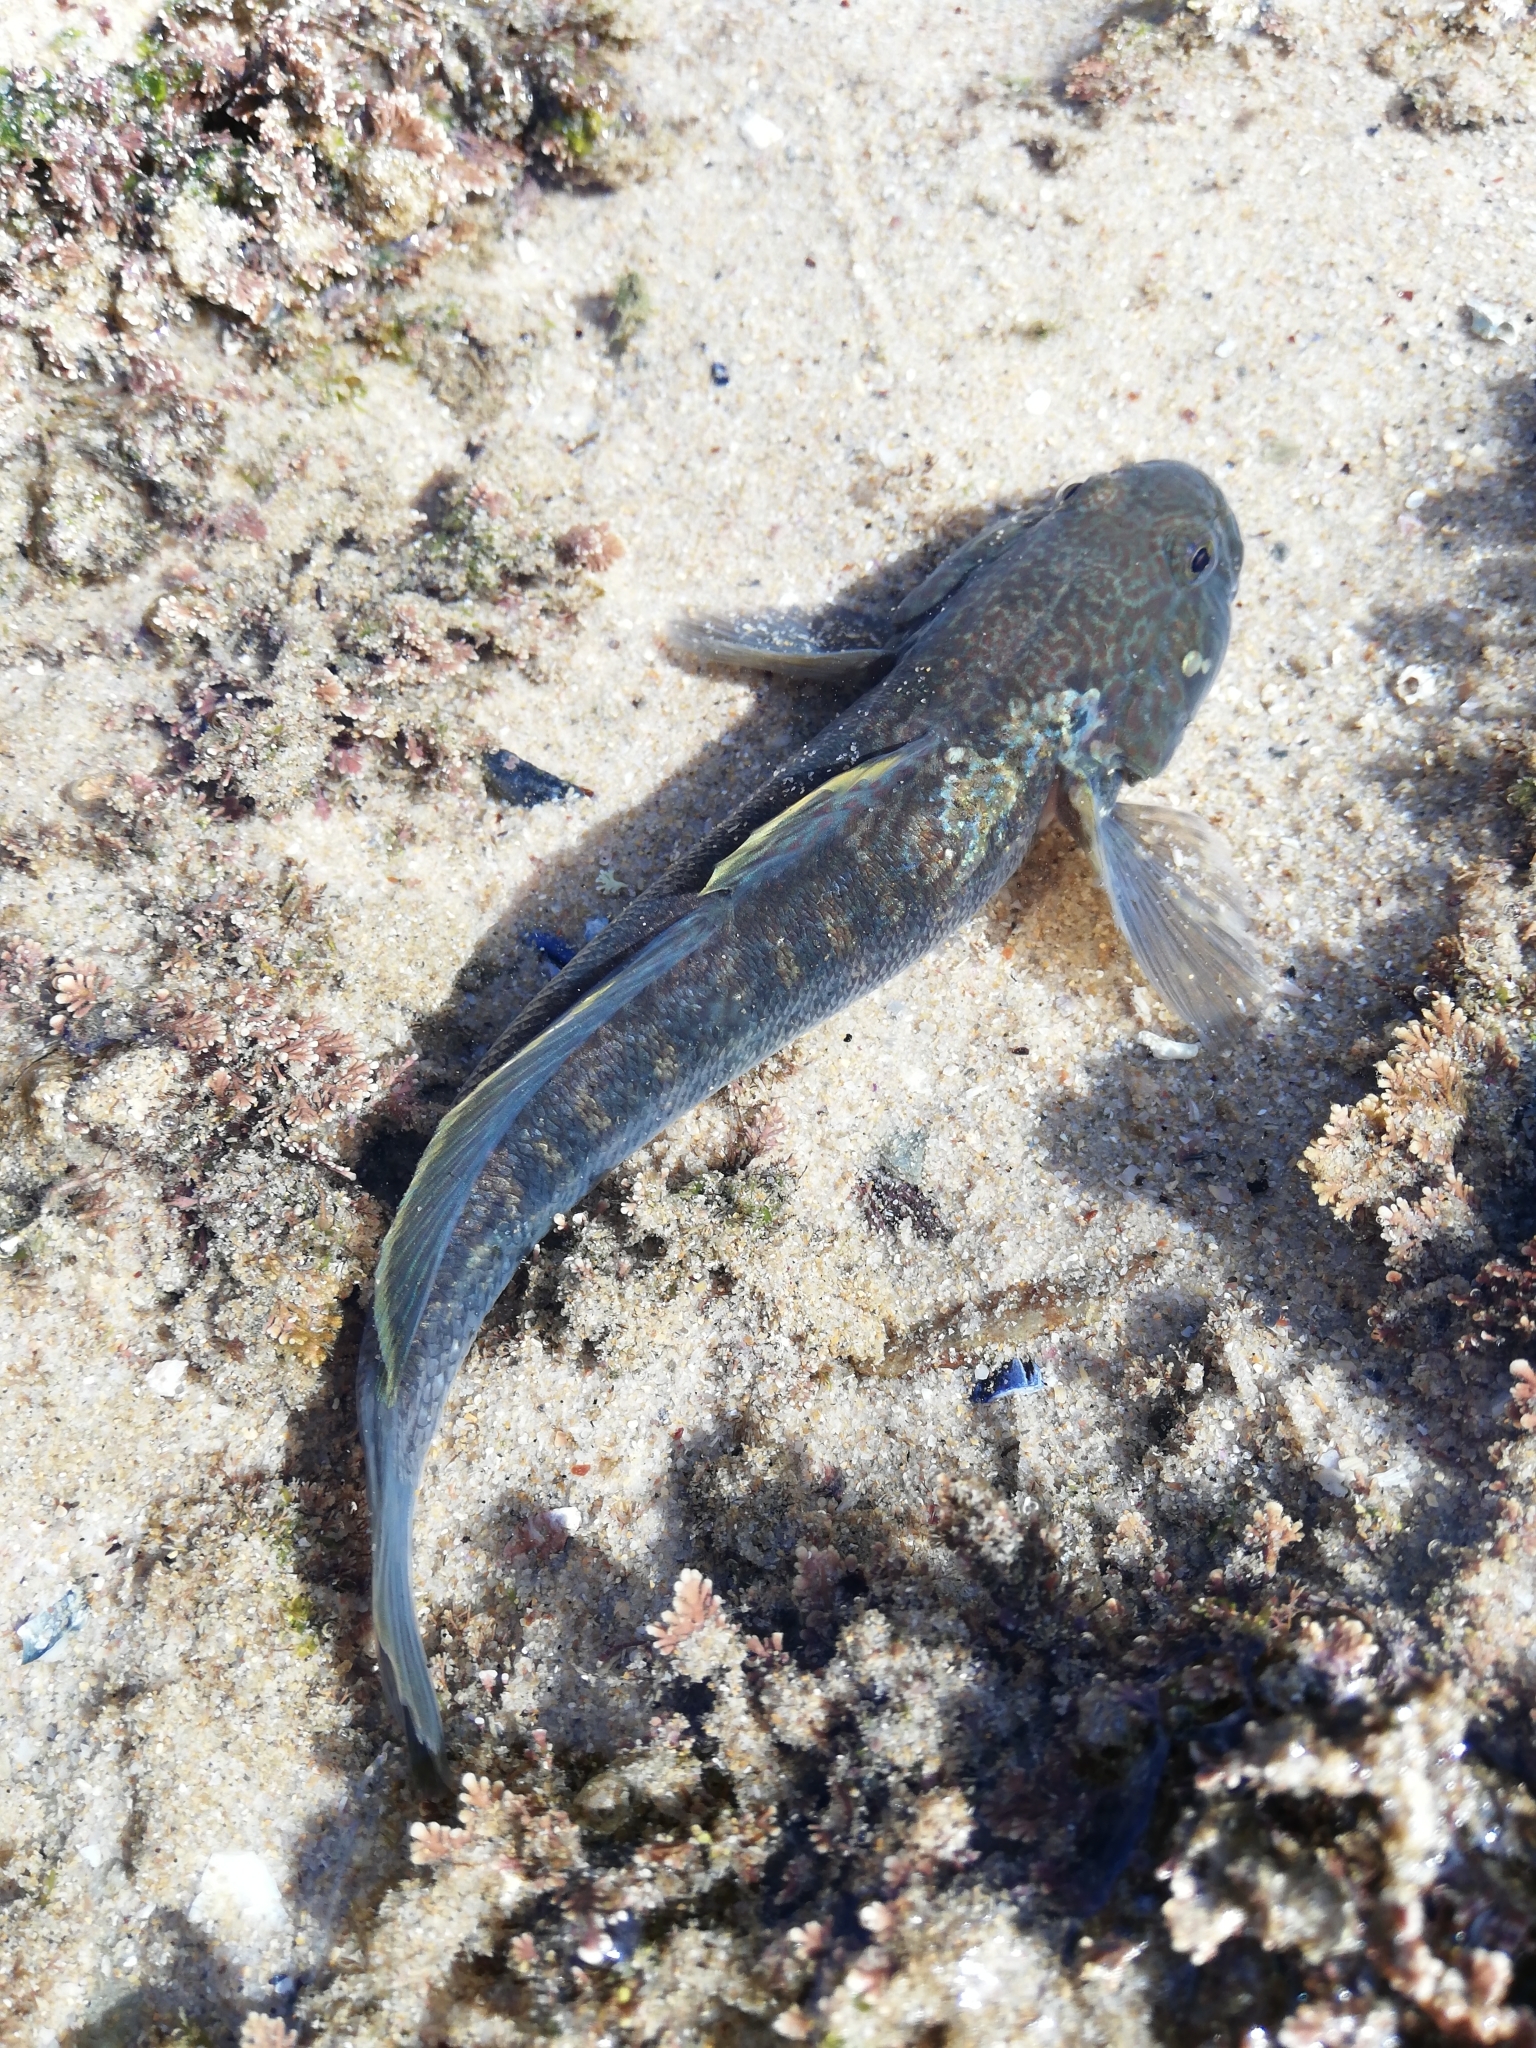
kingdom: Animalia
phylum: Chordata
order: Perciformes
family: Gobiidae
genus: Caffrogobius
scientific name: Caffrogobius caffer
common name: Banded goby
